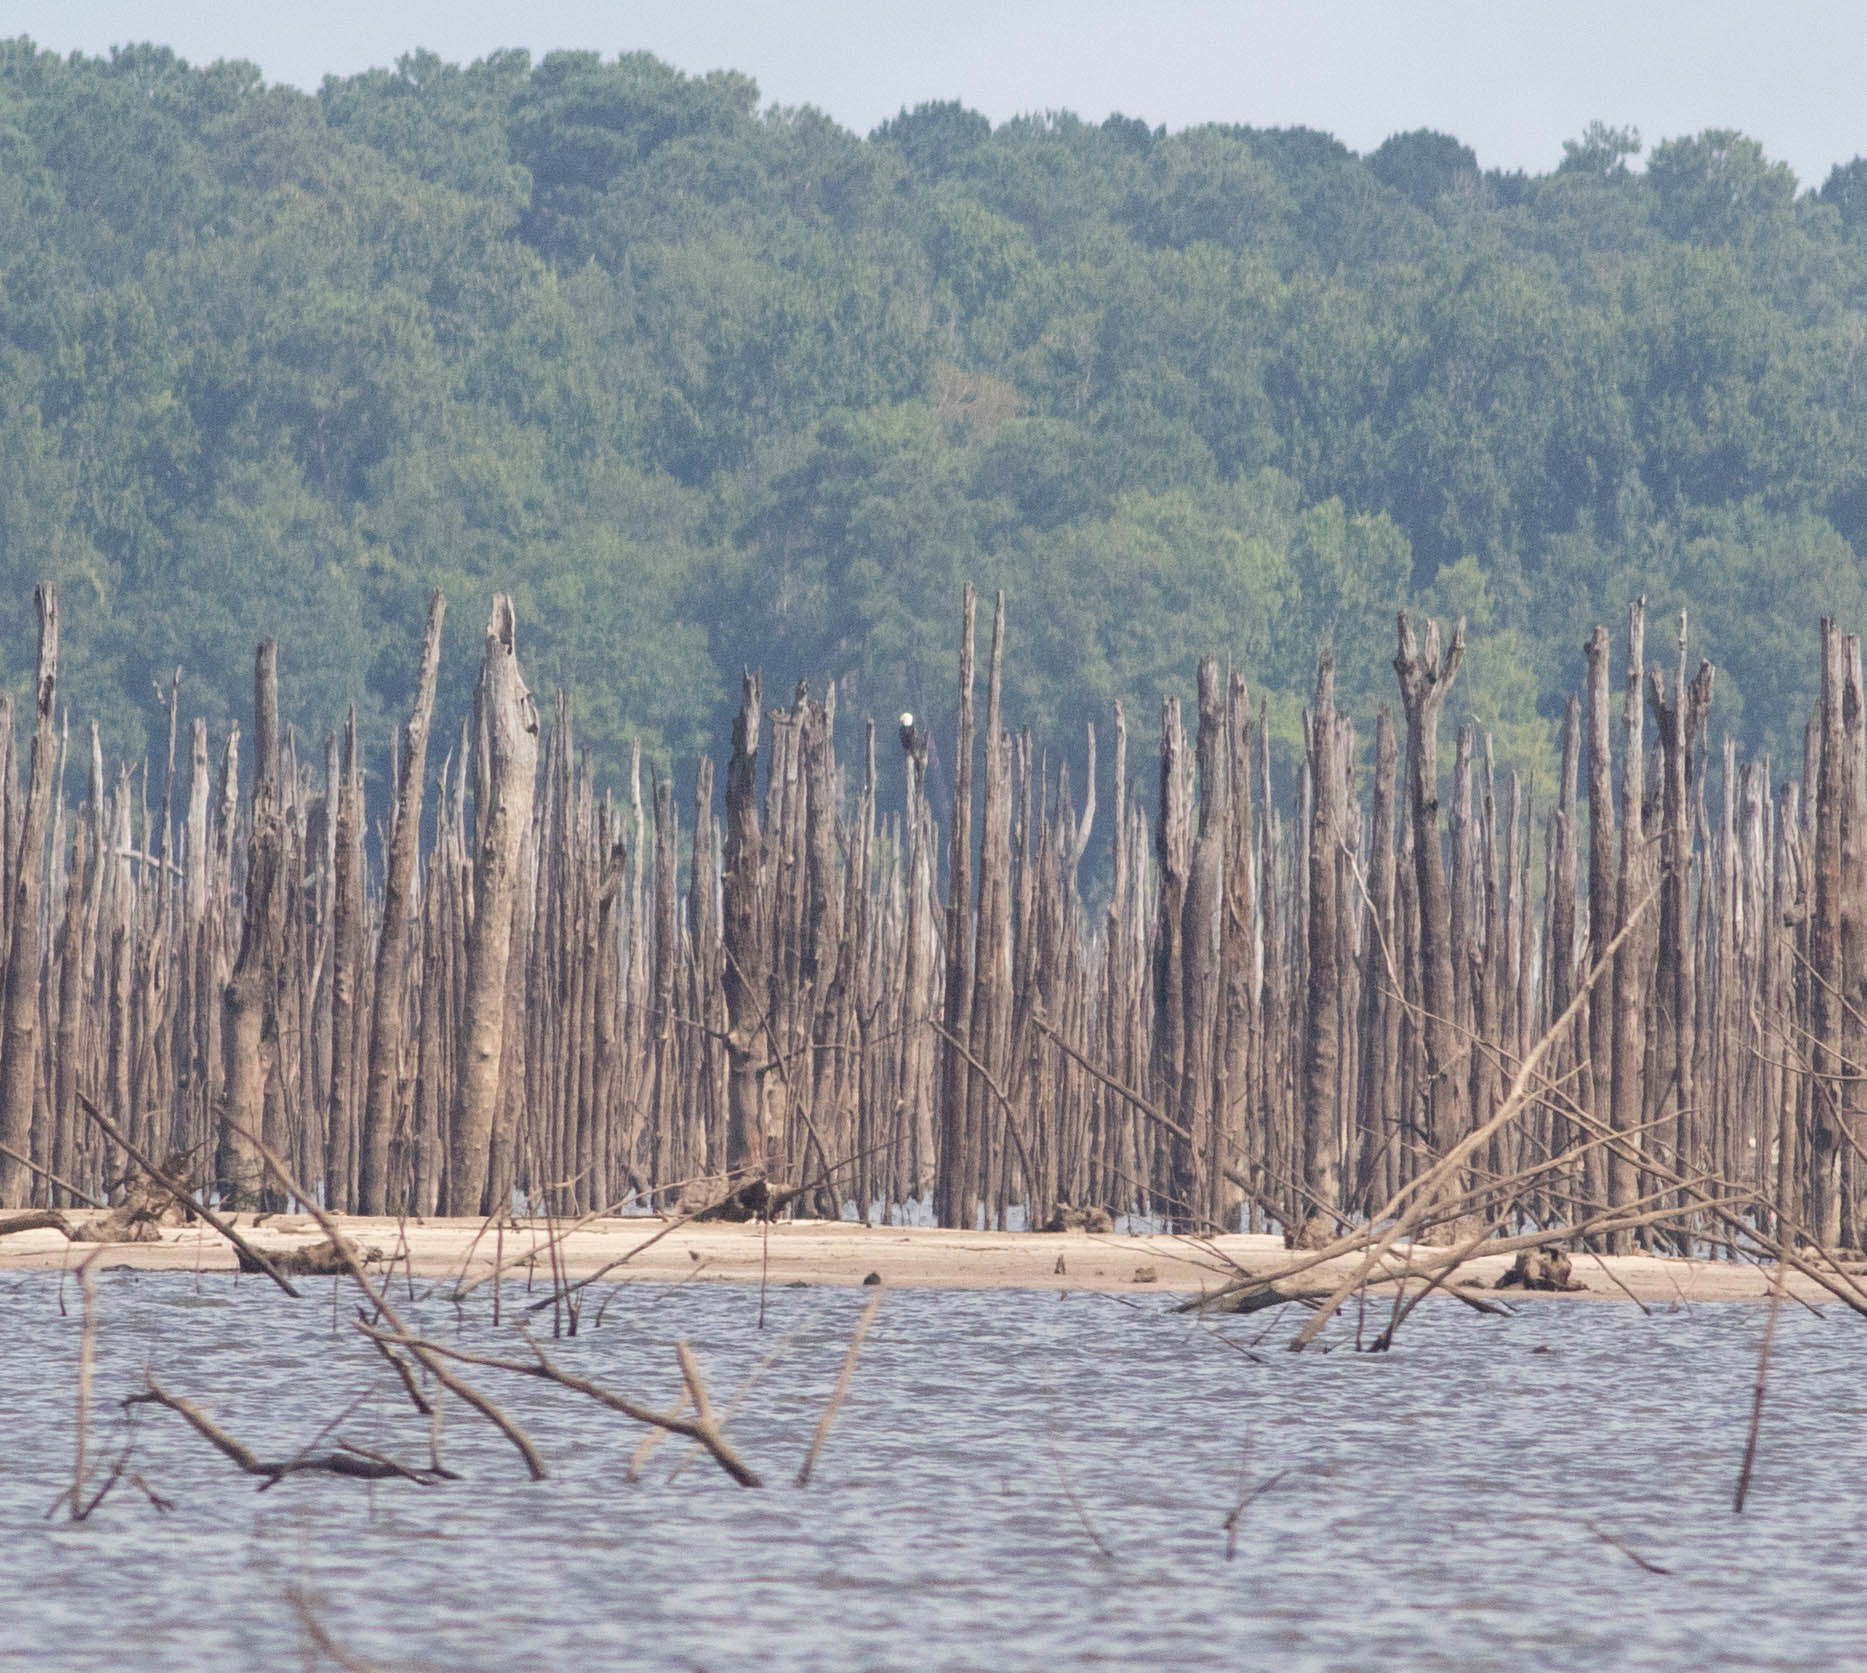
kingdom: Animalia
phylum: Chordata
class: Aves
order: Accipitriformes
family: Accipitridae
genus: Haliaeetus
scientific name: Haliaeetus leucocephalus
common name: Bald eagle
